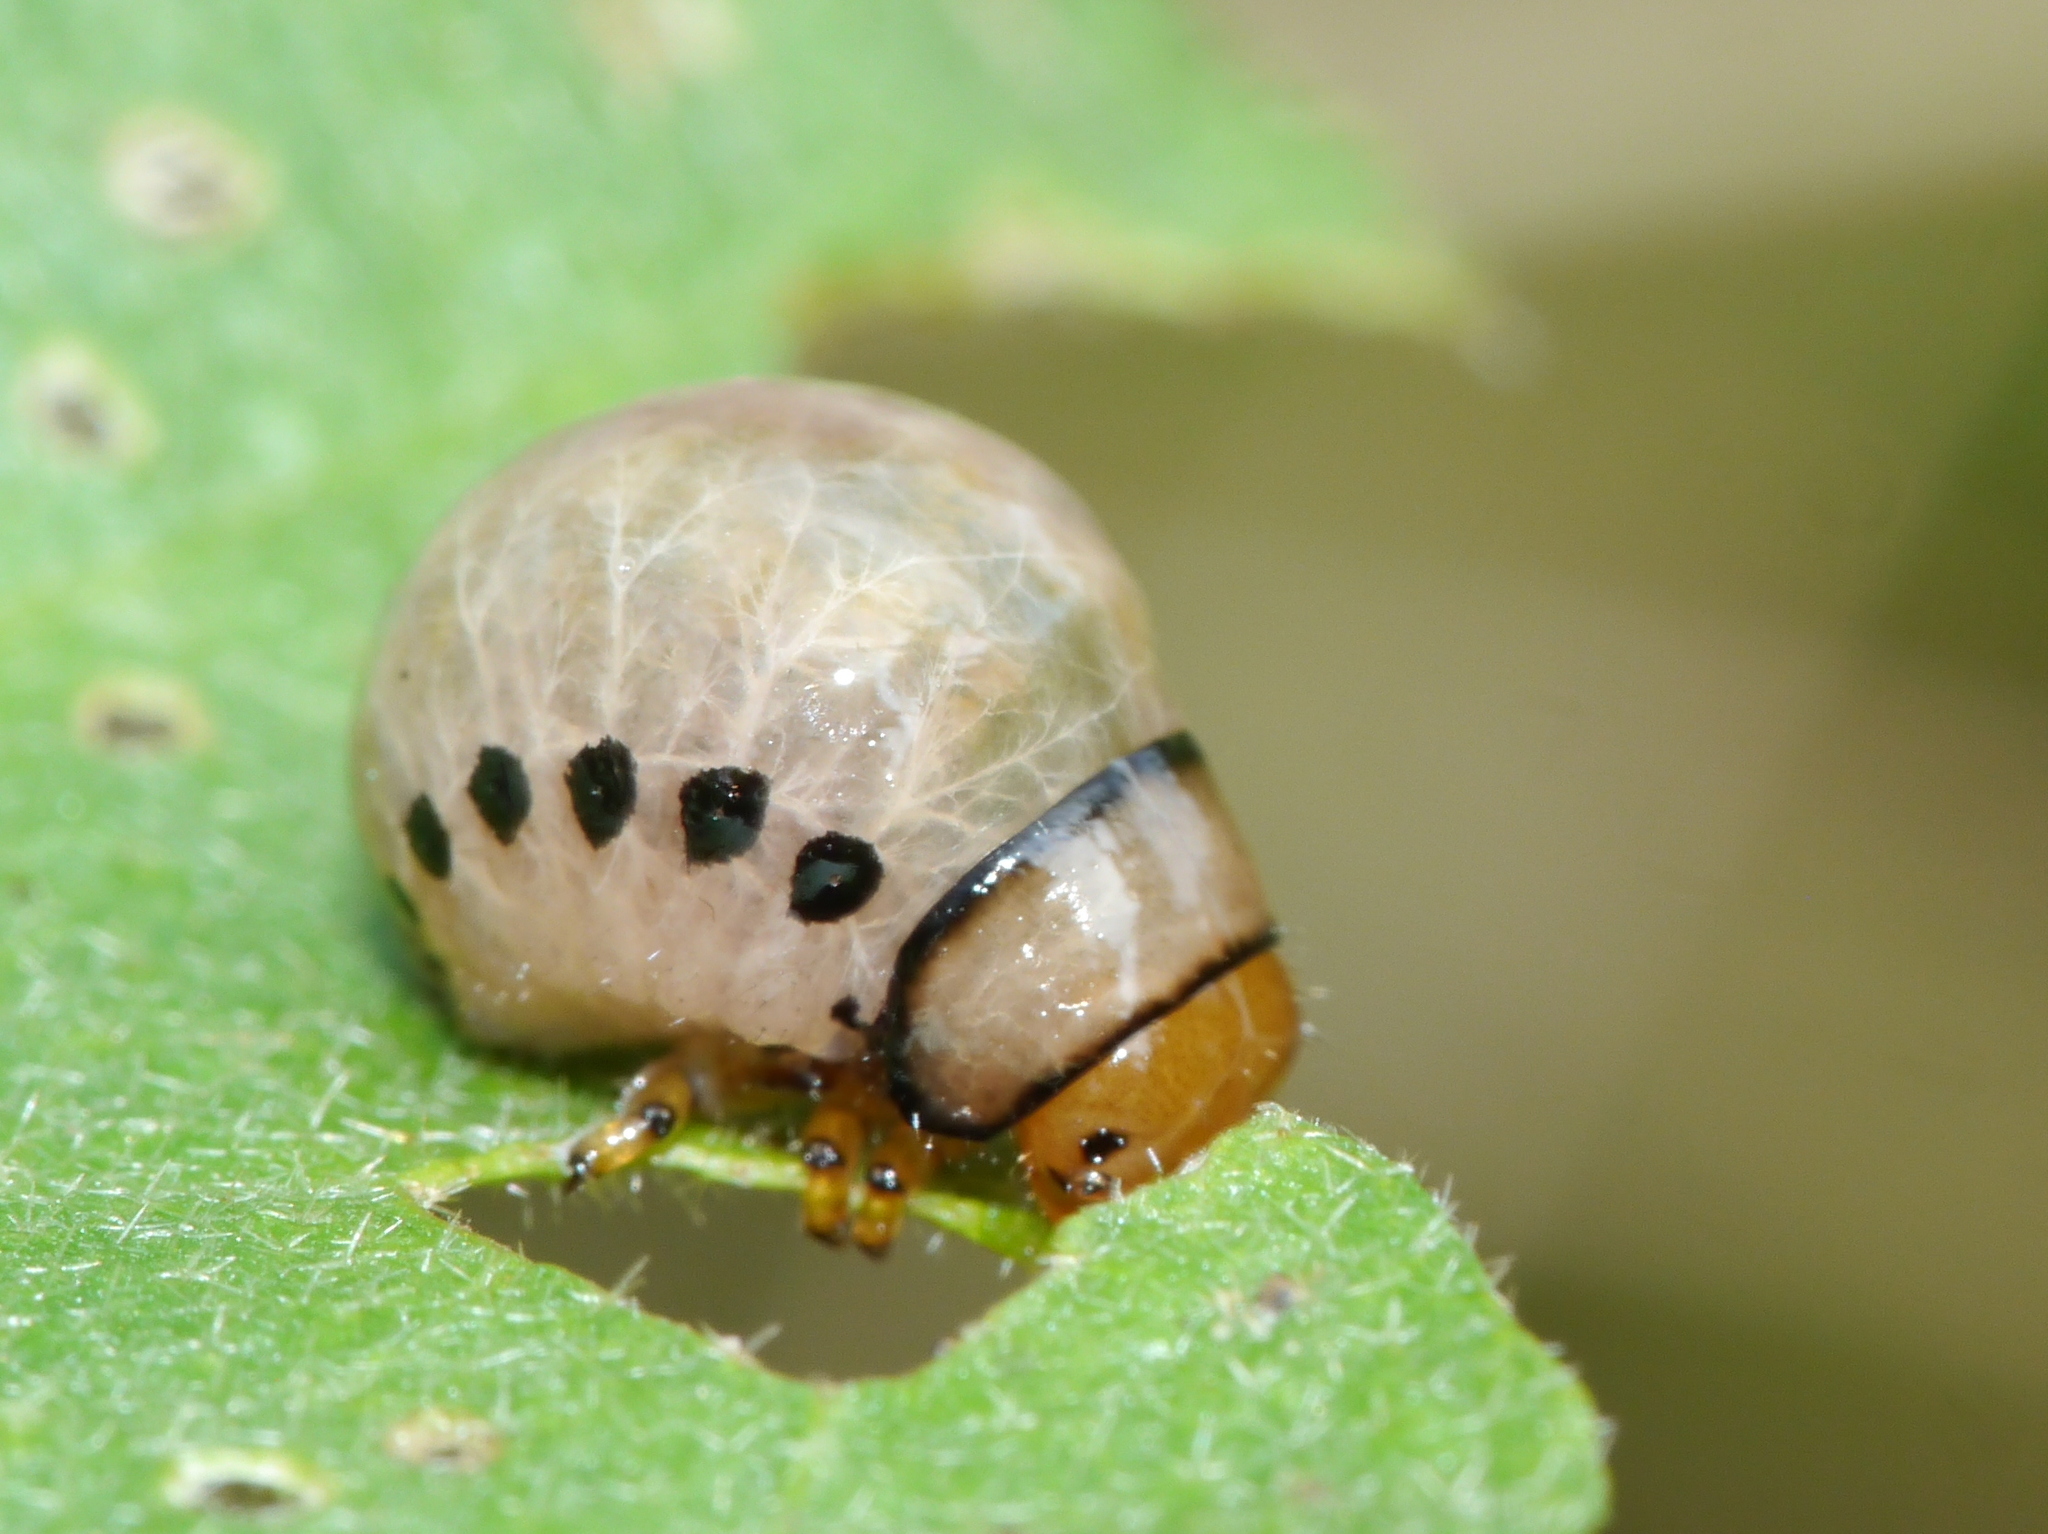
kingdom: Animalia
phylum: Arthropoda
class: Insecta
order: Coleoptera
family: Chrysomelidae
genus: Leptinotarsa
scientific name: Leptinotarsa juncta
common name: False potato beetle
